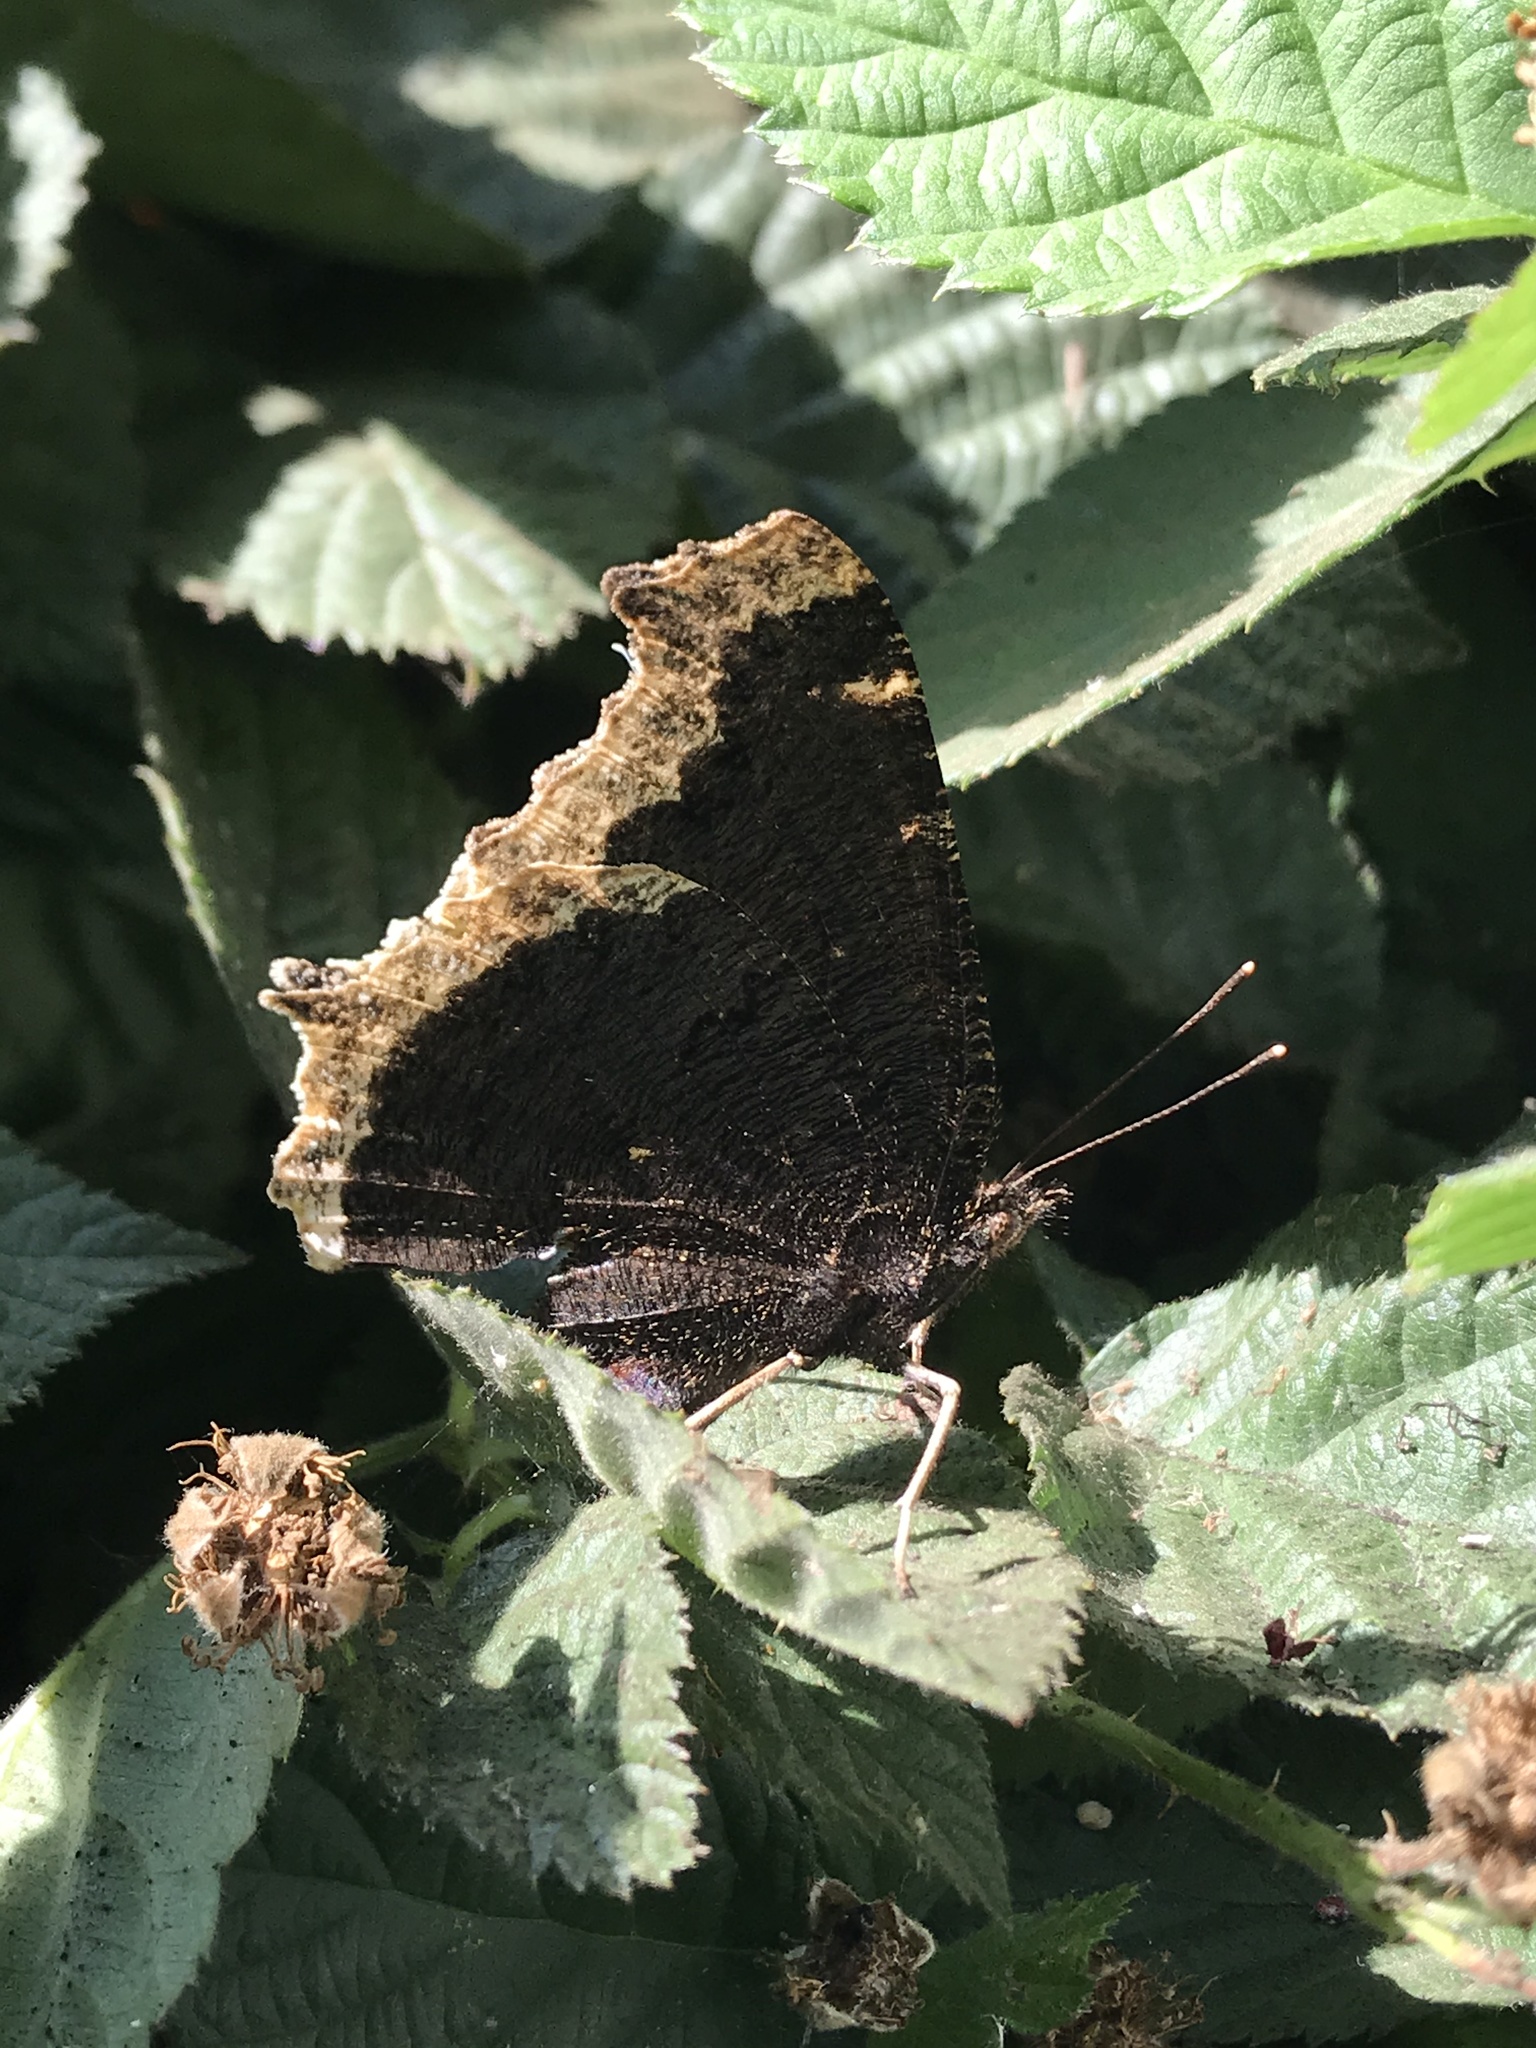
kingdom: Animalia
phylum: Arthropoda
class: Insecta
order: Lepidoptera
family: Nymphalidae
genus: Nymphalis
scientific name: Nymphalis antiopa
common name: Camberwell beauty
